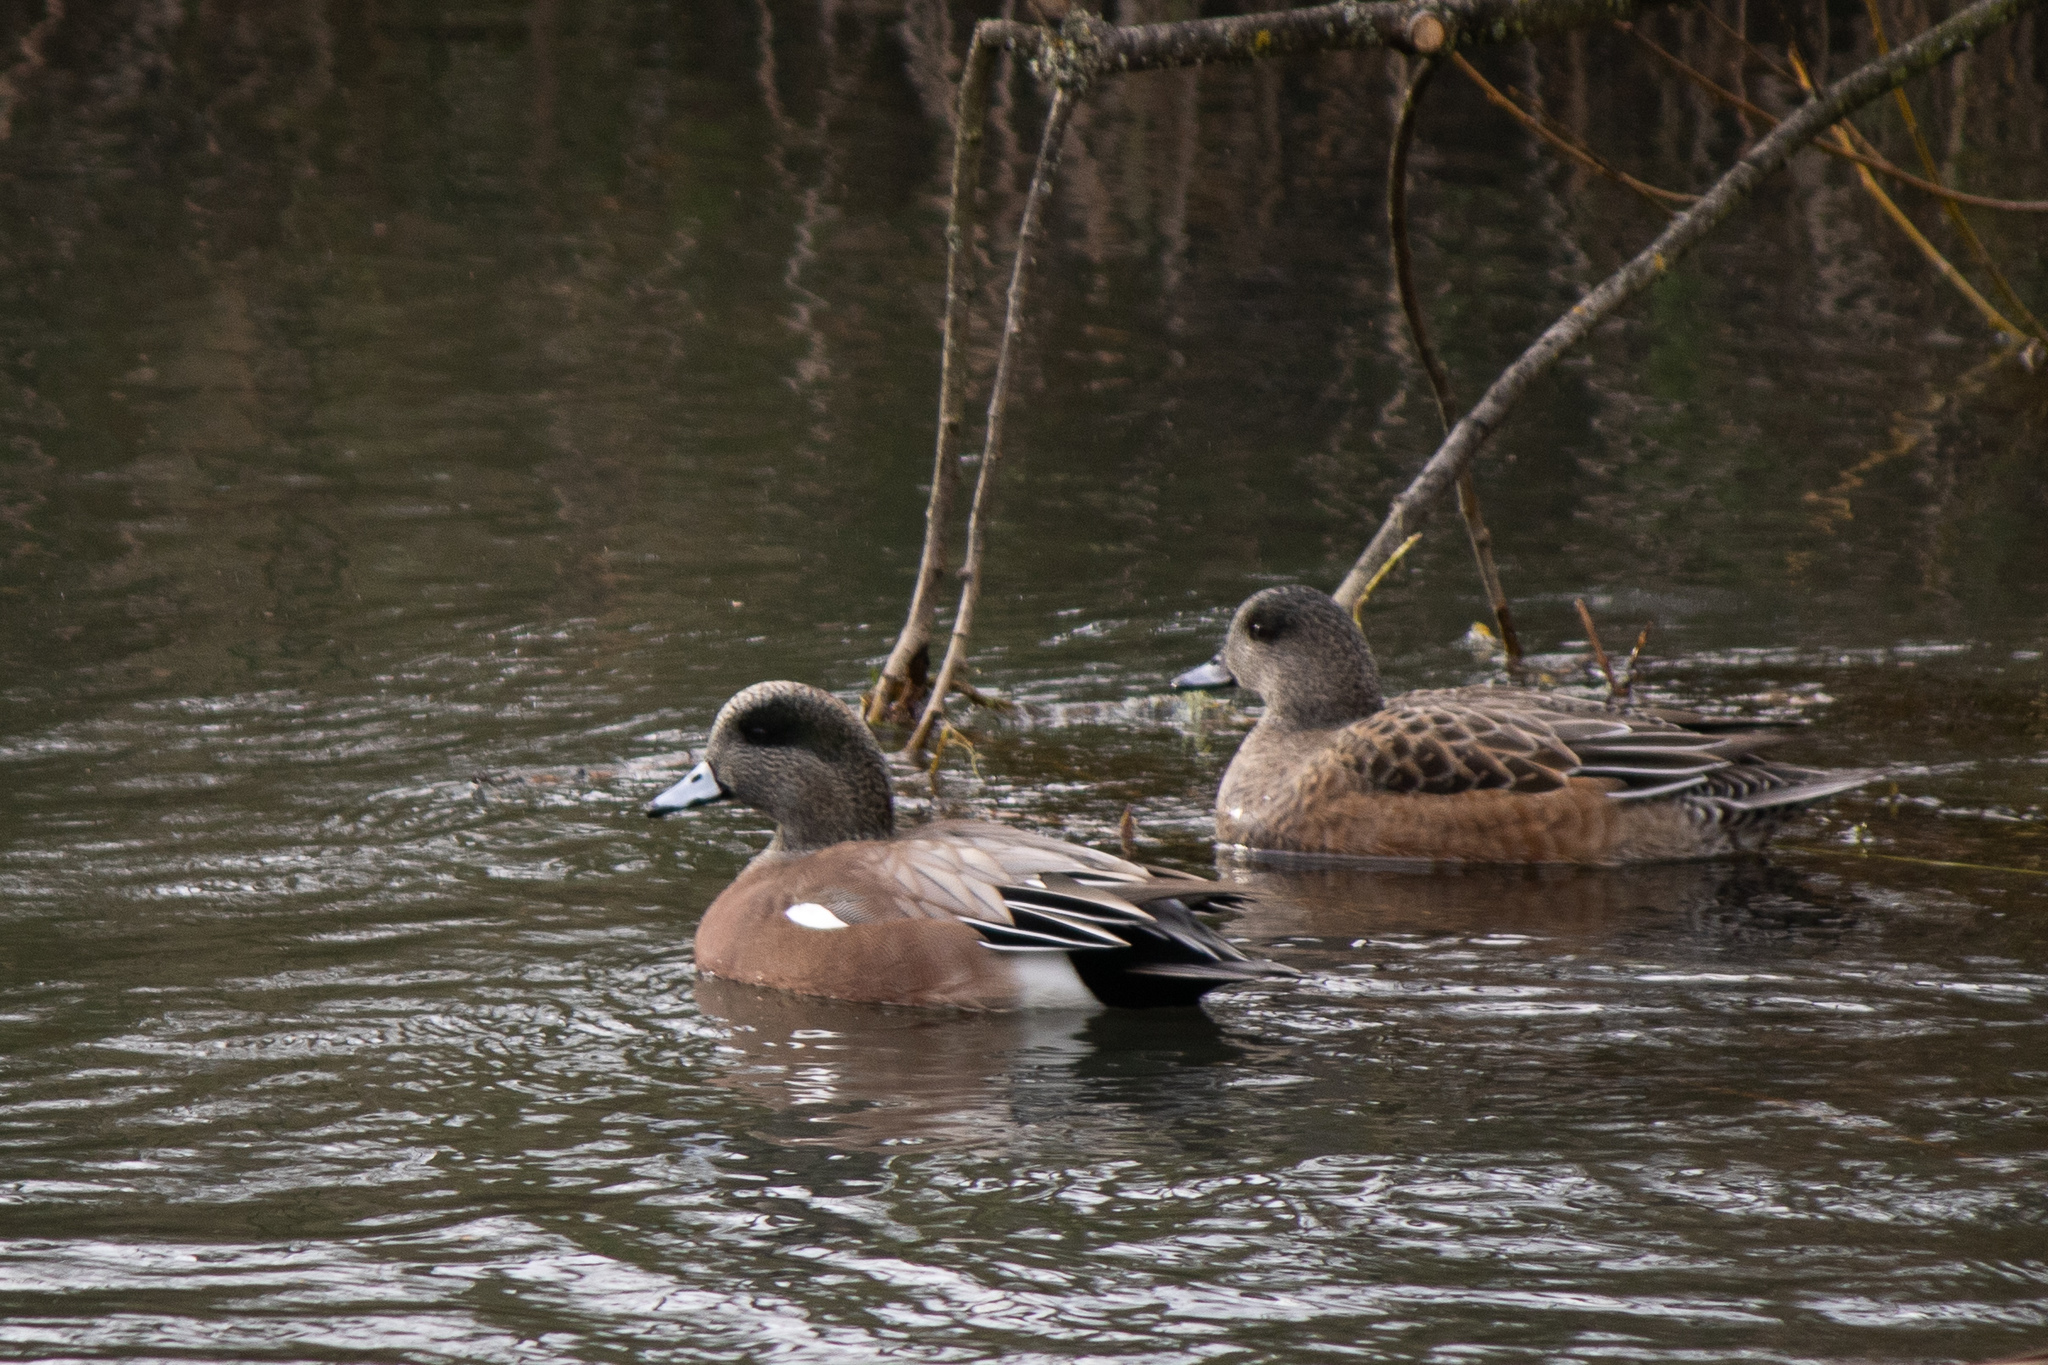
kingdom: Animalia
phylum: Chordata
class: Aves
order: Anseriformes
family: Anatidae
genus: Mareca
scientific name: Mareca americana
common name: American wigeon
